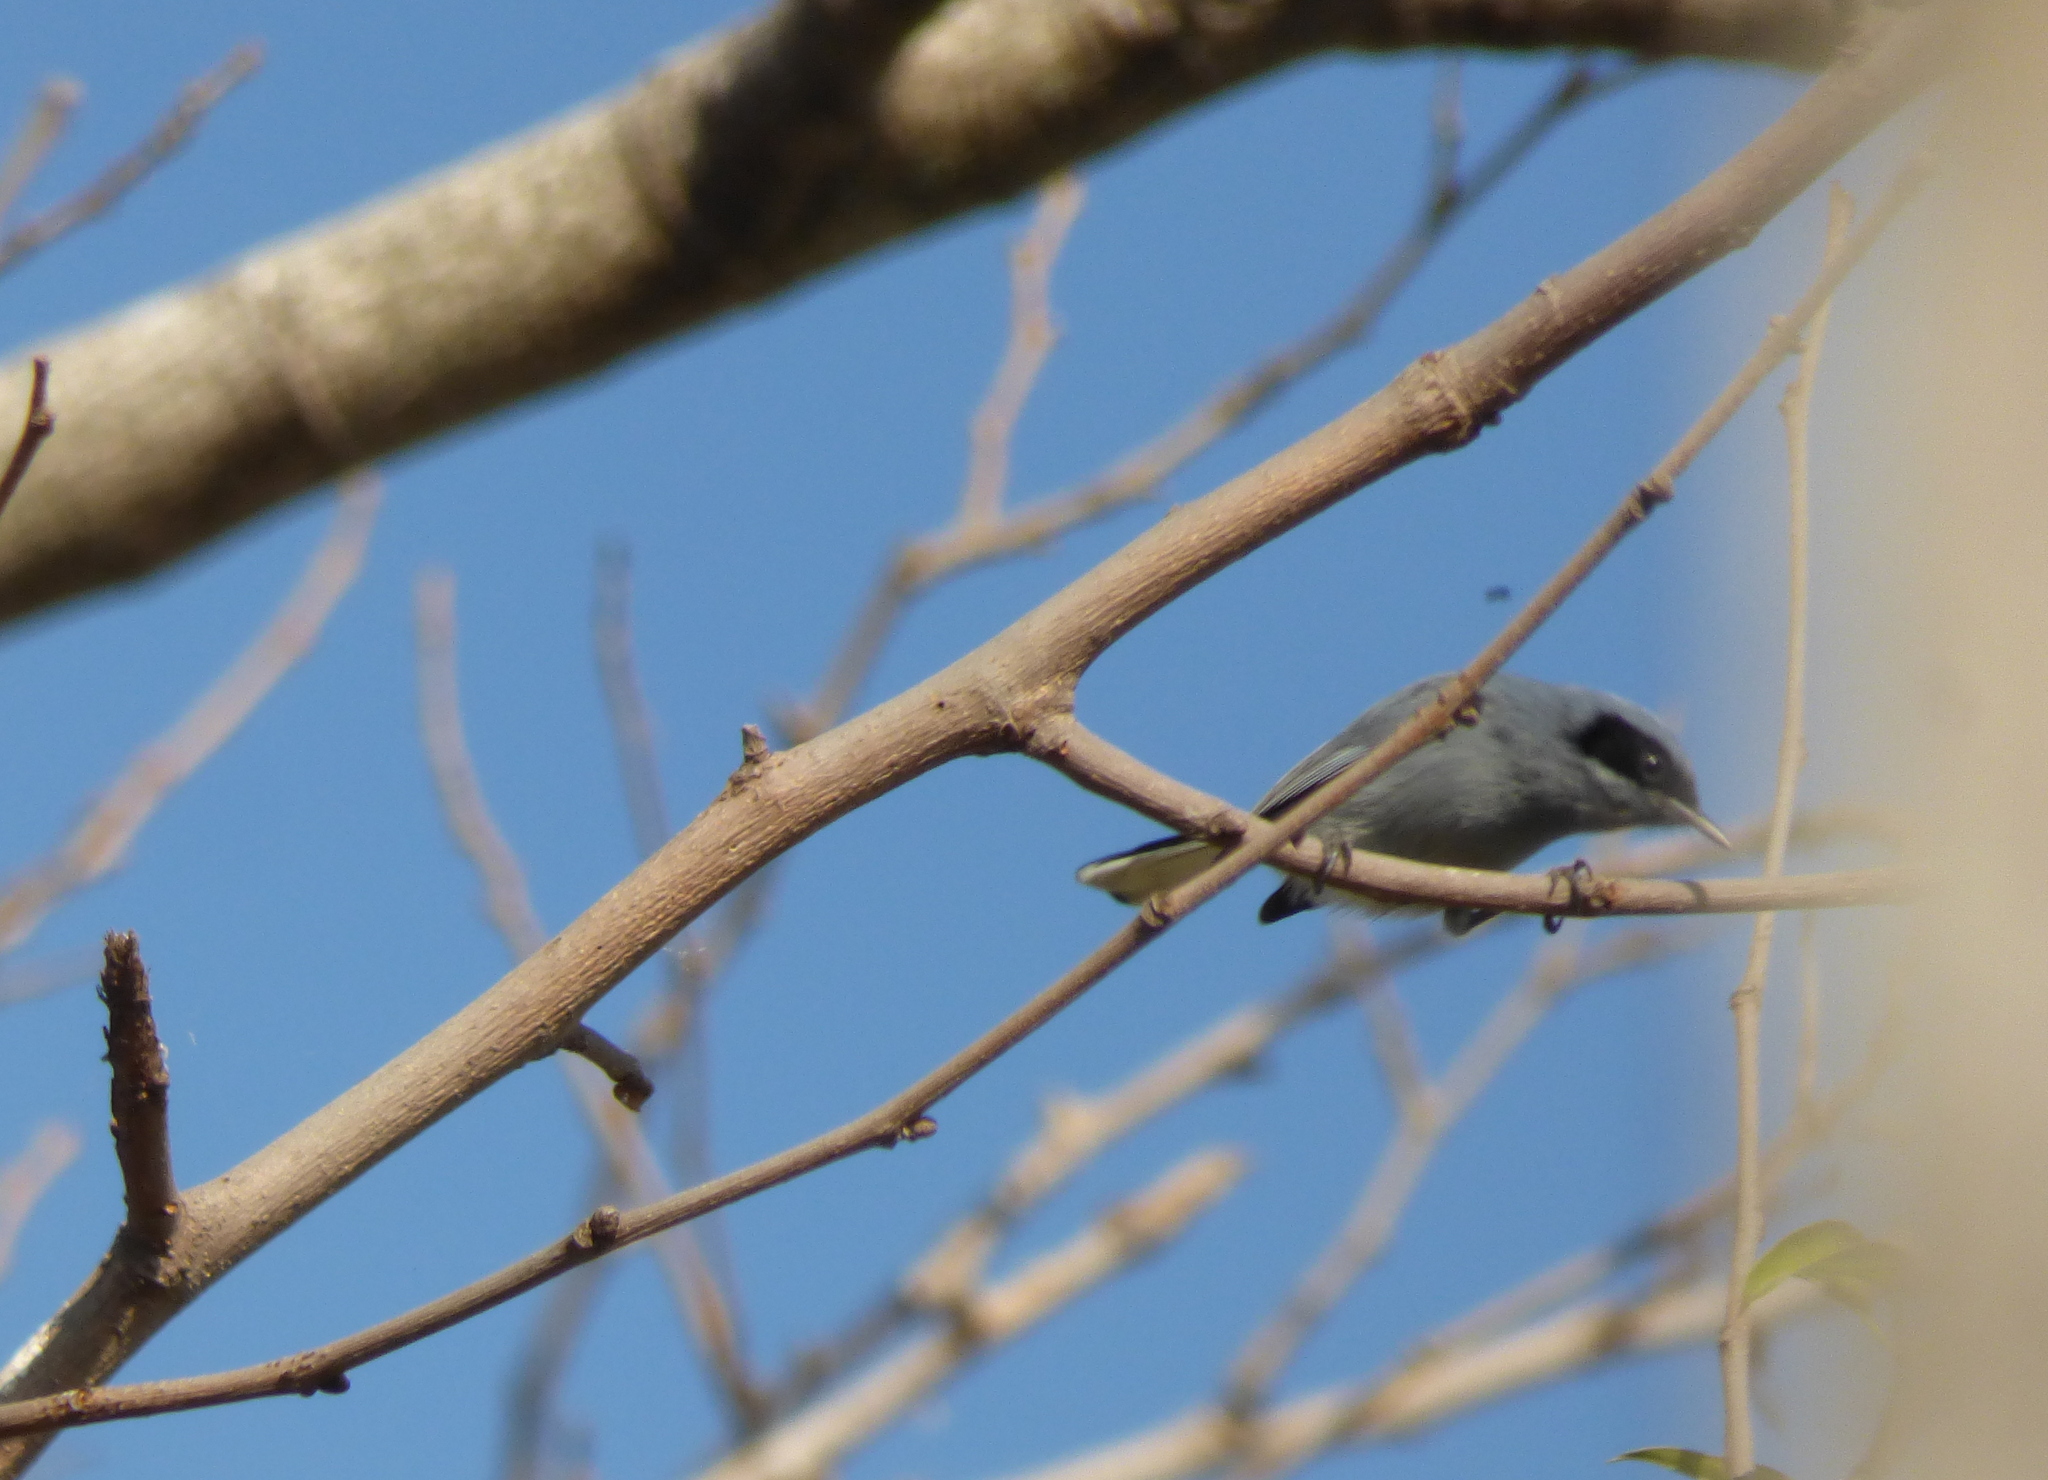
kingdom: Animalia
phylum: Chordata
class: Aves
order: Passeriformes
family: Polioptilidae
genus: Polioptila
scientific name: Polioptila dumicola
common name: Masked gnatcatcher
